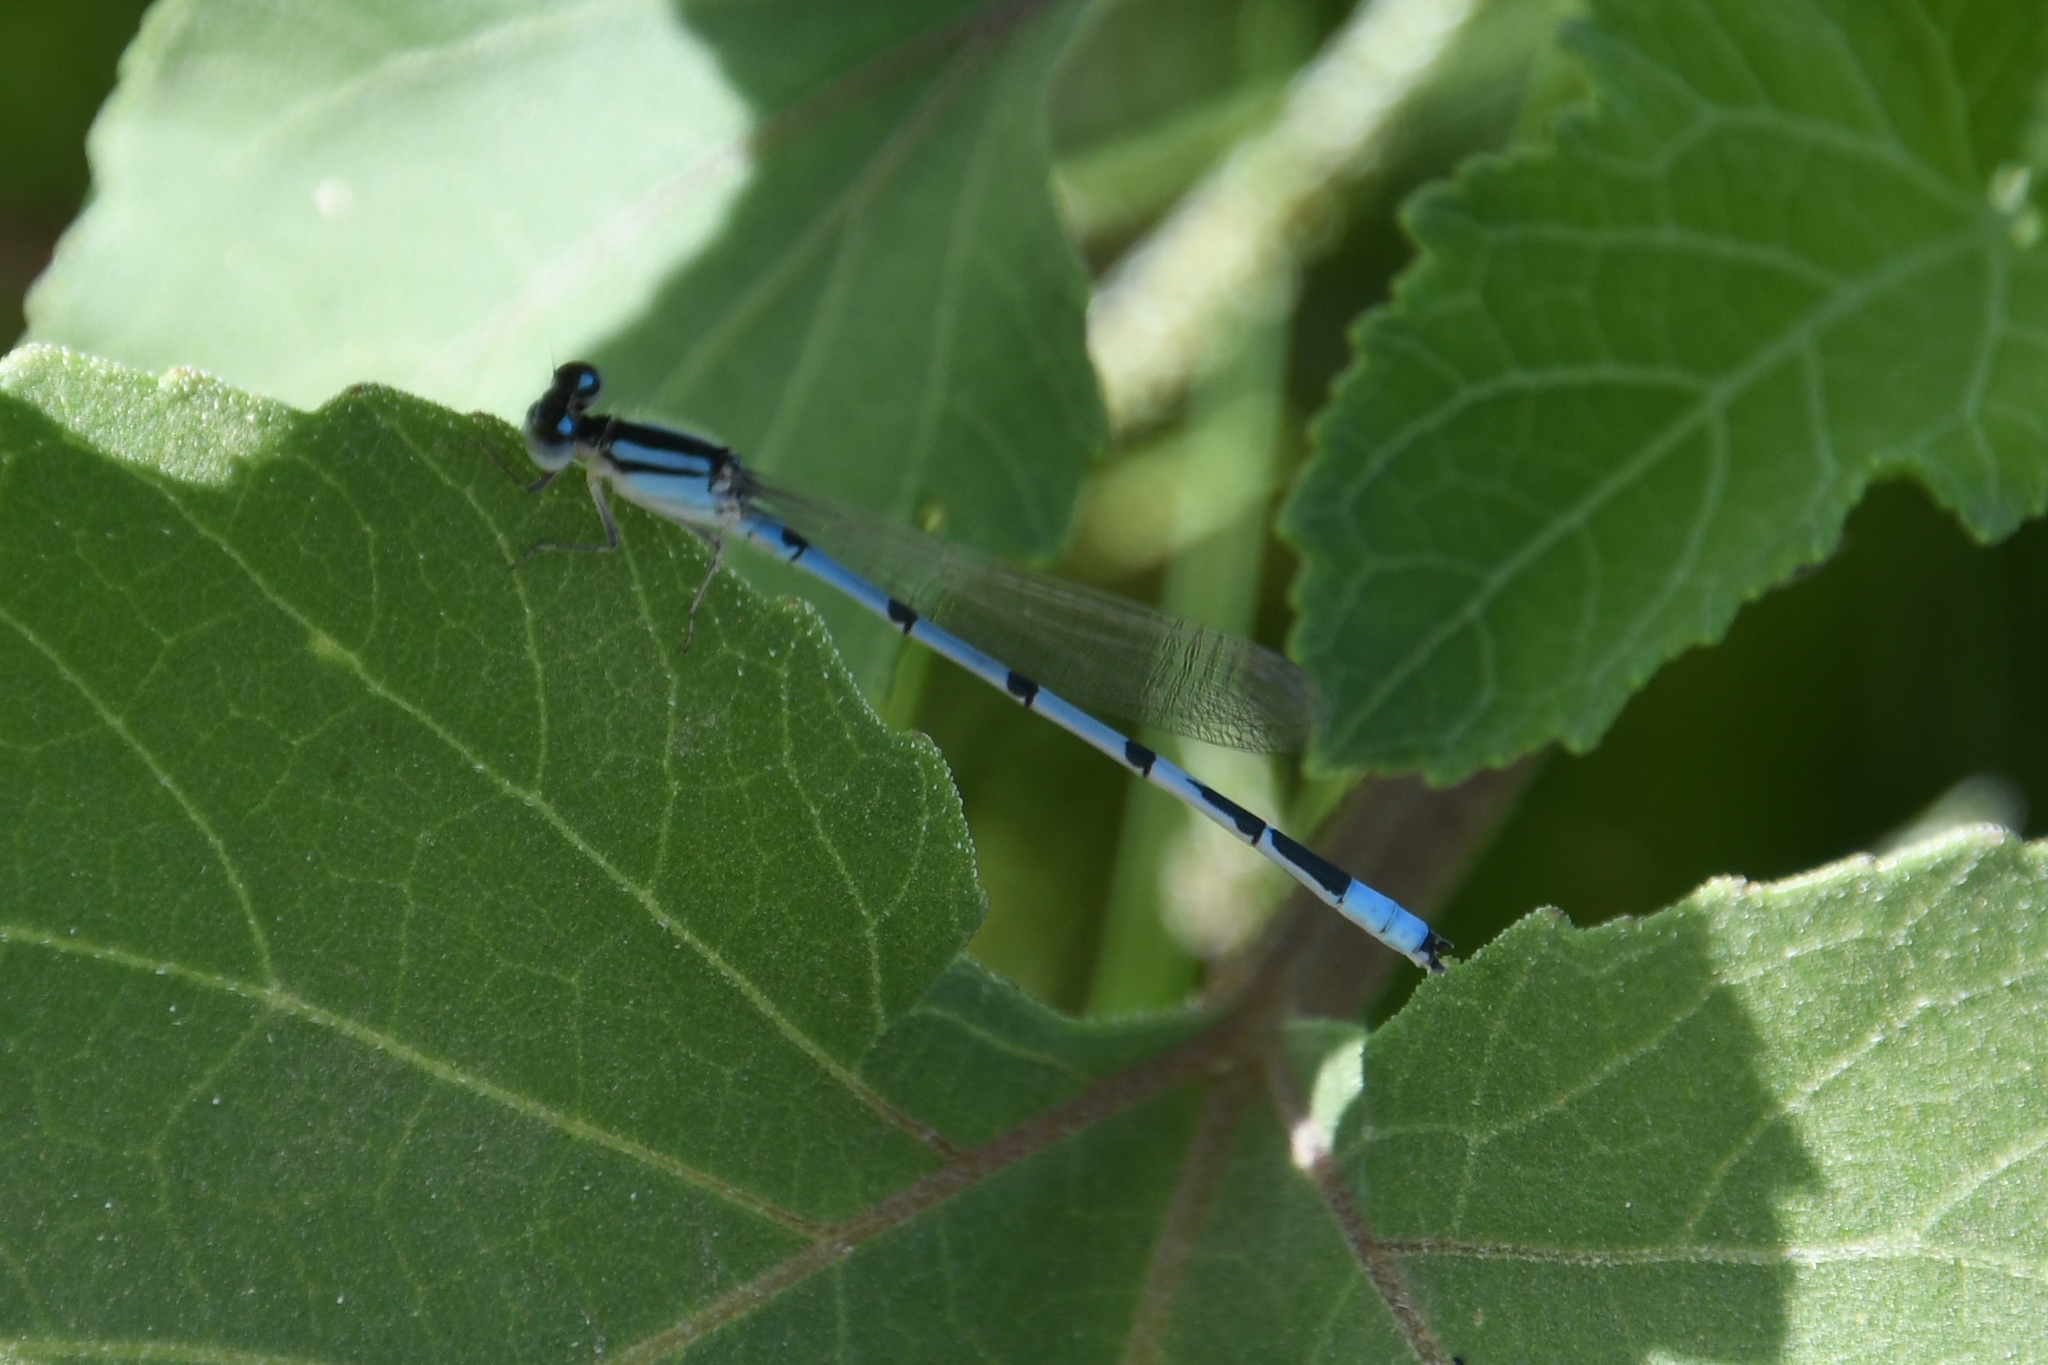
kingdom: Animalia
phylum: Arthropoda
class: Insecta
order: Odonata
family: Coenagrionidae
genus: Enallagma
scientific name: Enallagma civile
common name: Damselfly
